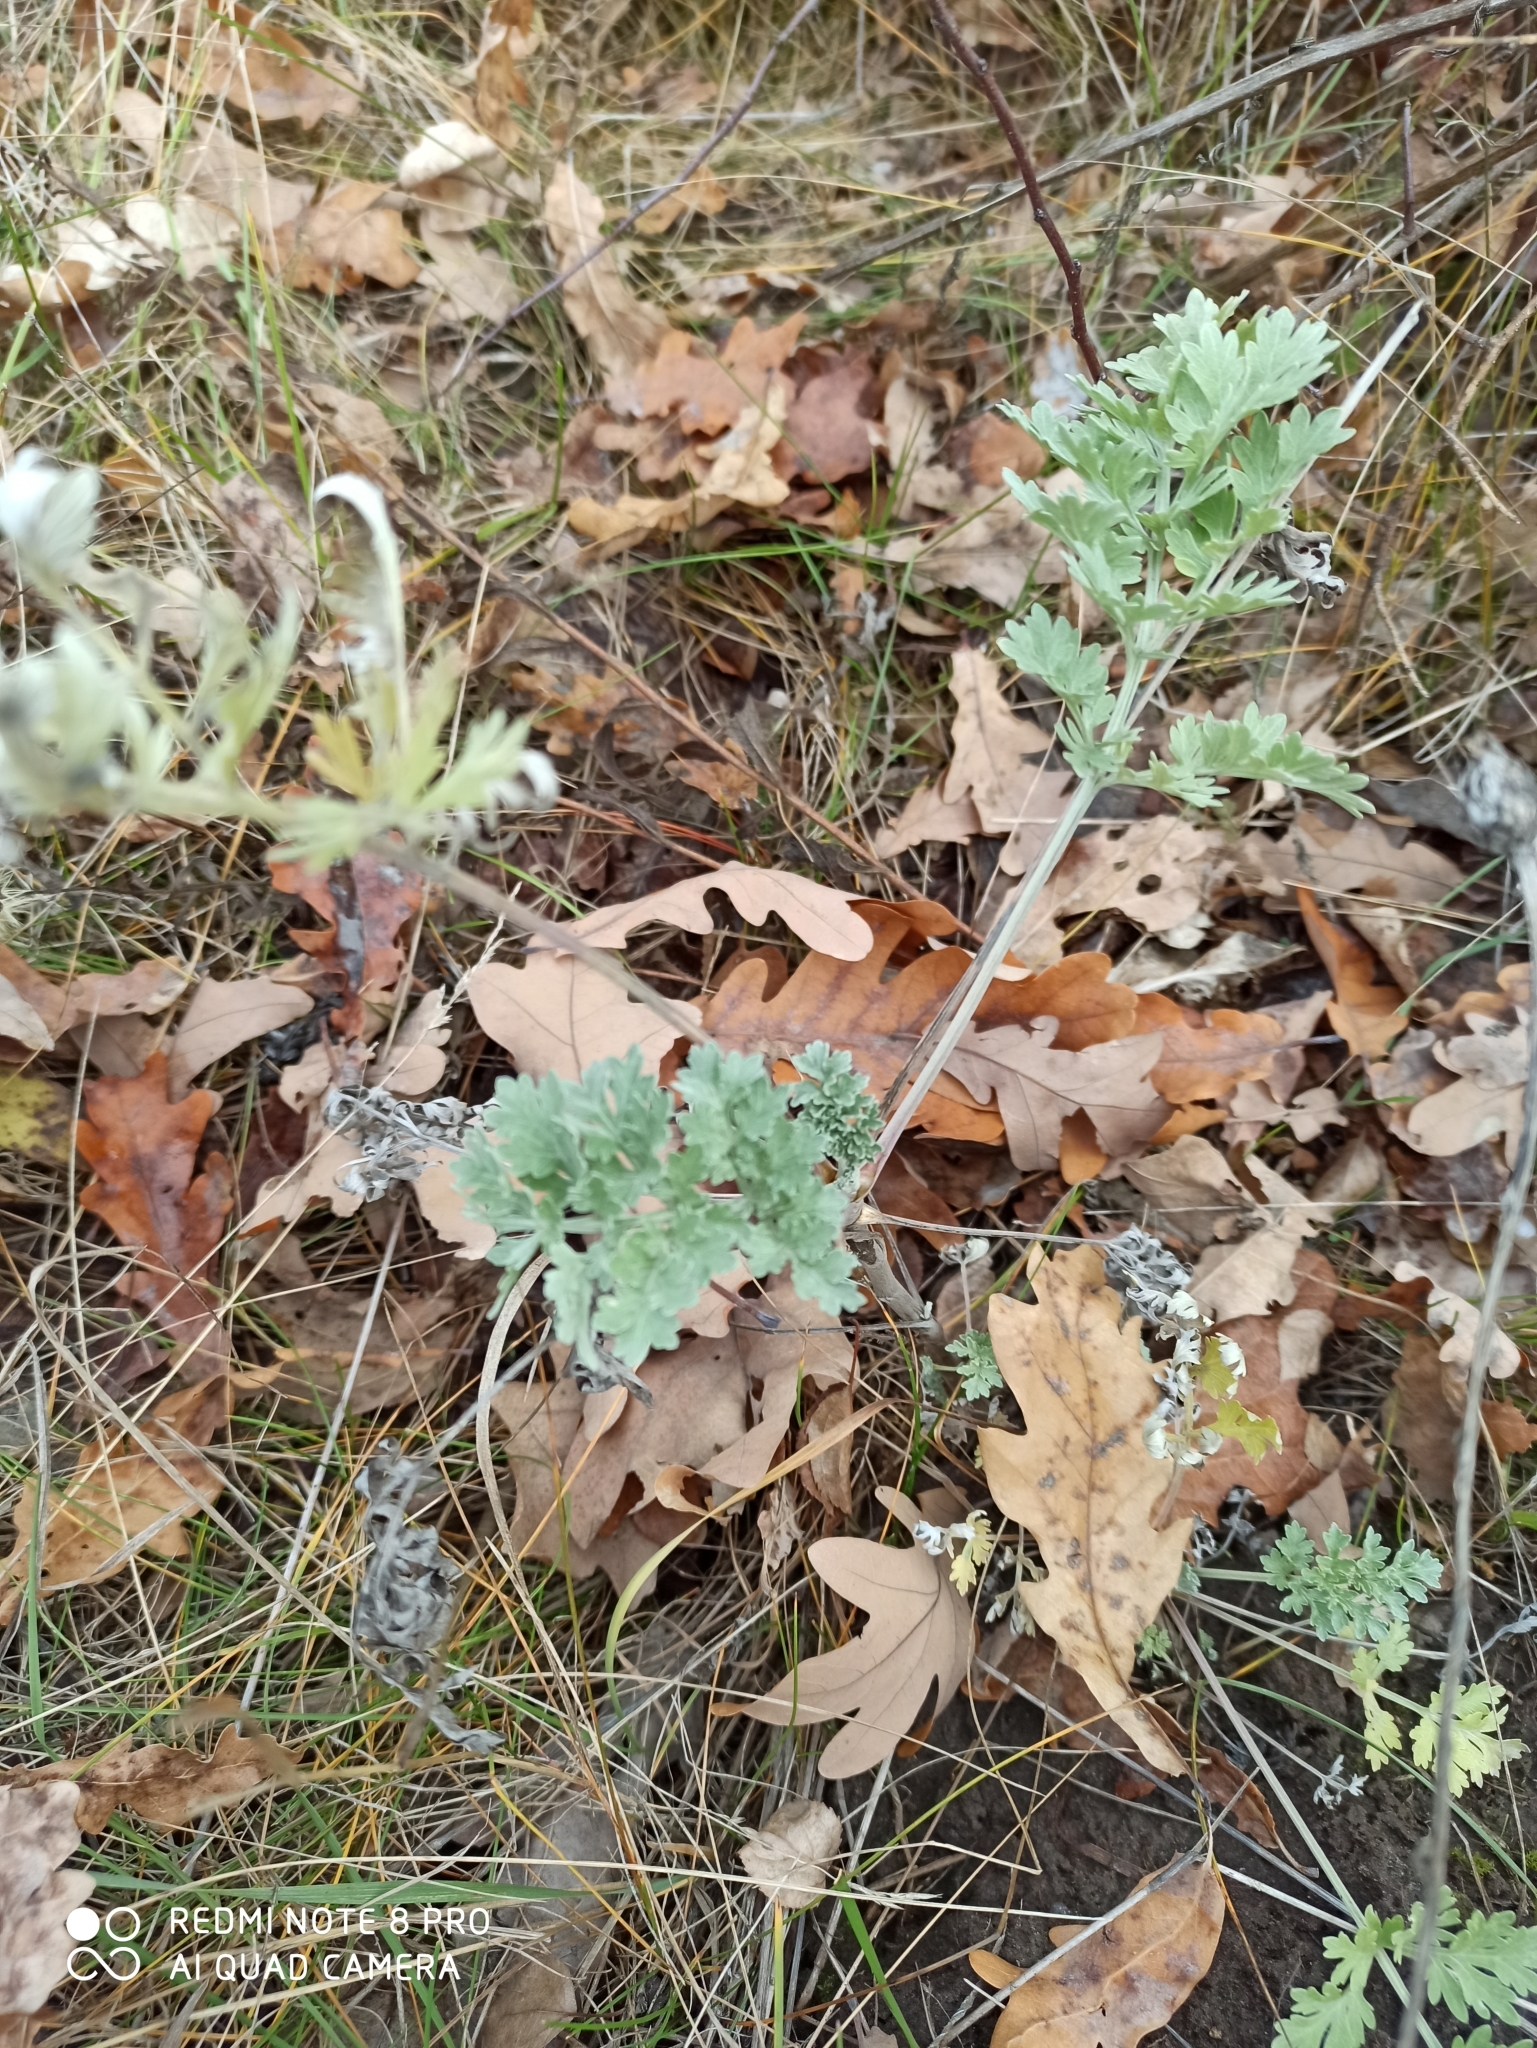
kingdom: Plantae
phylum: Tracheophyta
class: Magnoliopsida
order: Asterales
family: Asteraceae
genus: Artemisia
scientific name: Artemisia absinthium
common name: Wormwood
